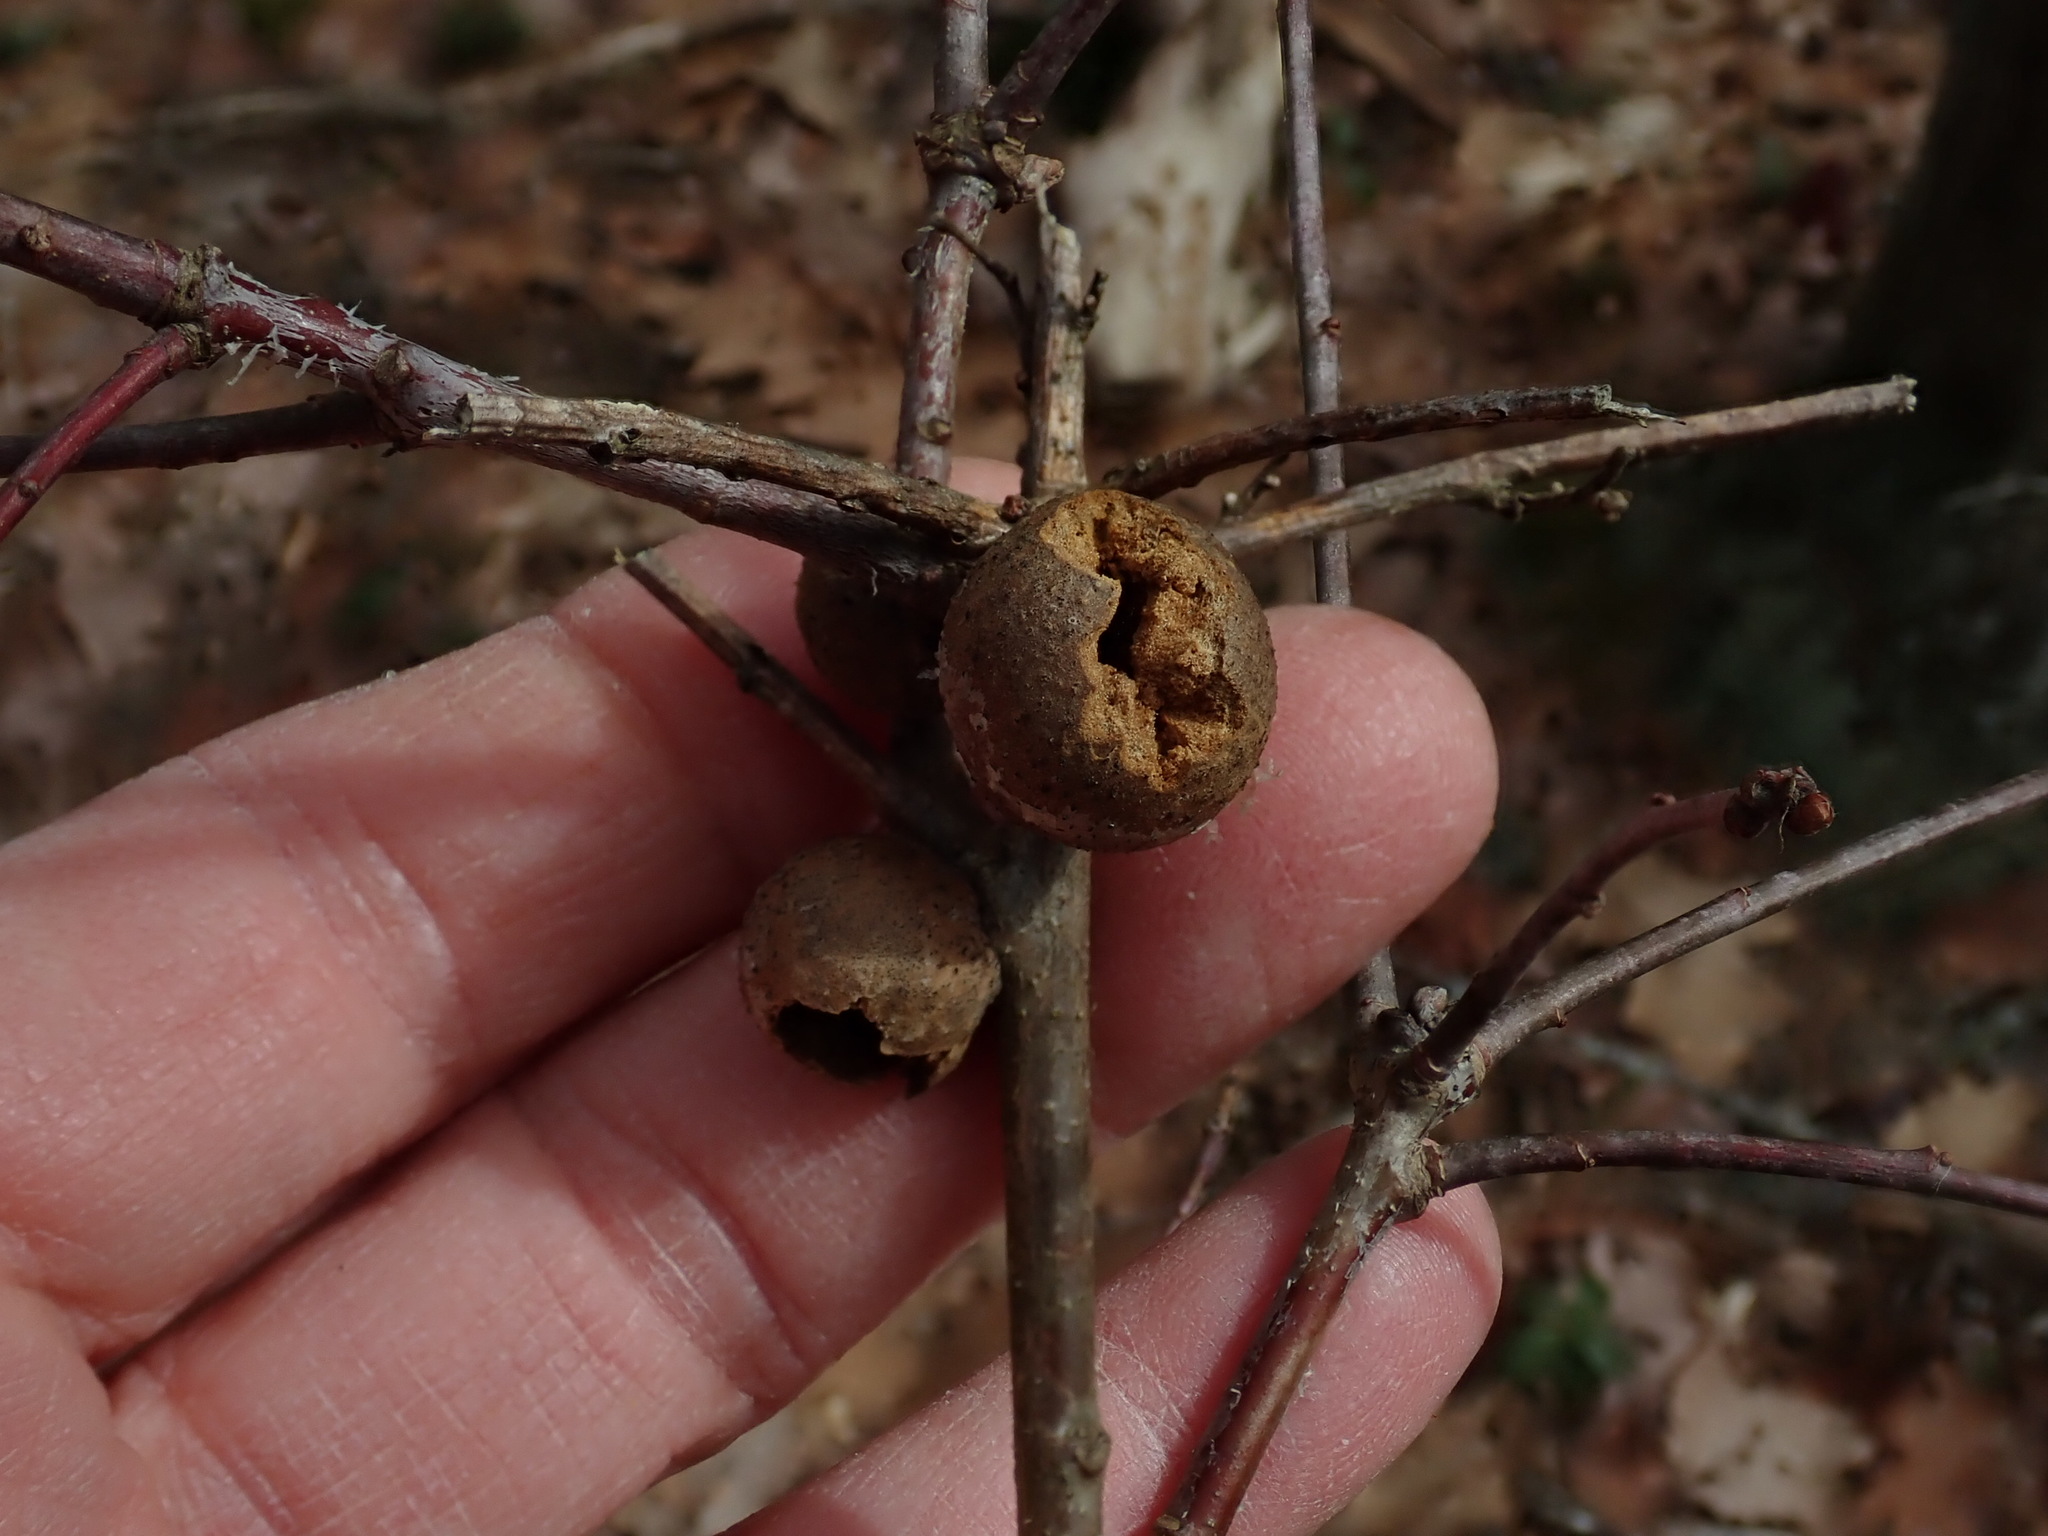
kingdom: Animalia
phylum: Arthropoda
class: Insecta
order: Hymenoptera
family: Cynipidae
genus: Disholcaspis
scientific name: Disholcaspis quercusglobulus
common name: Round bullet gall wasp
